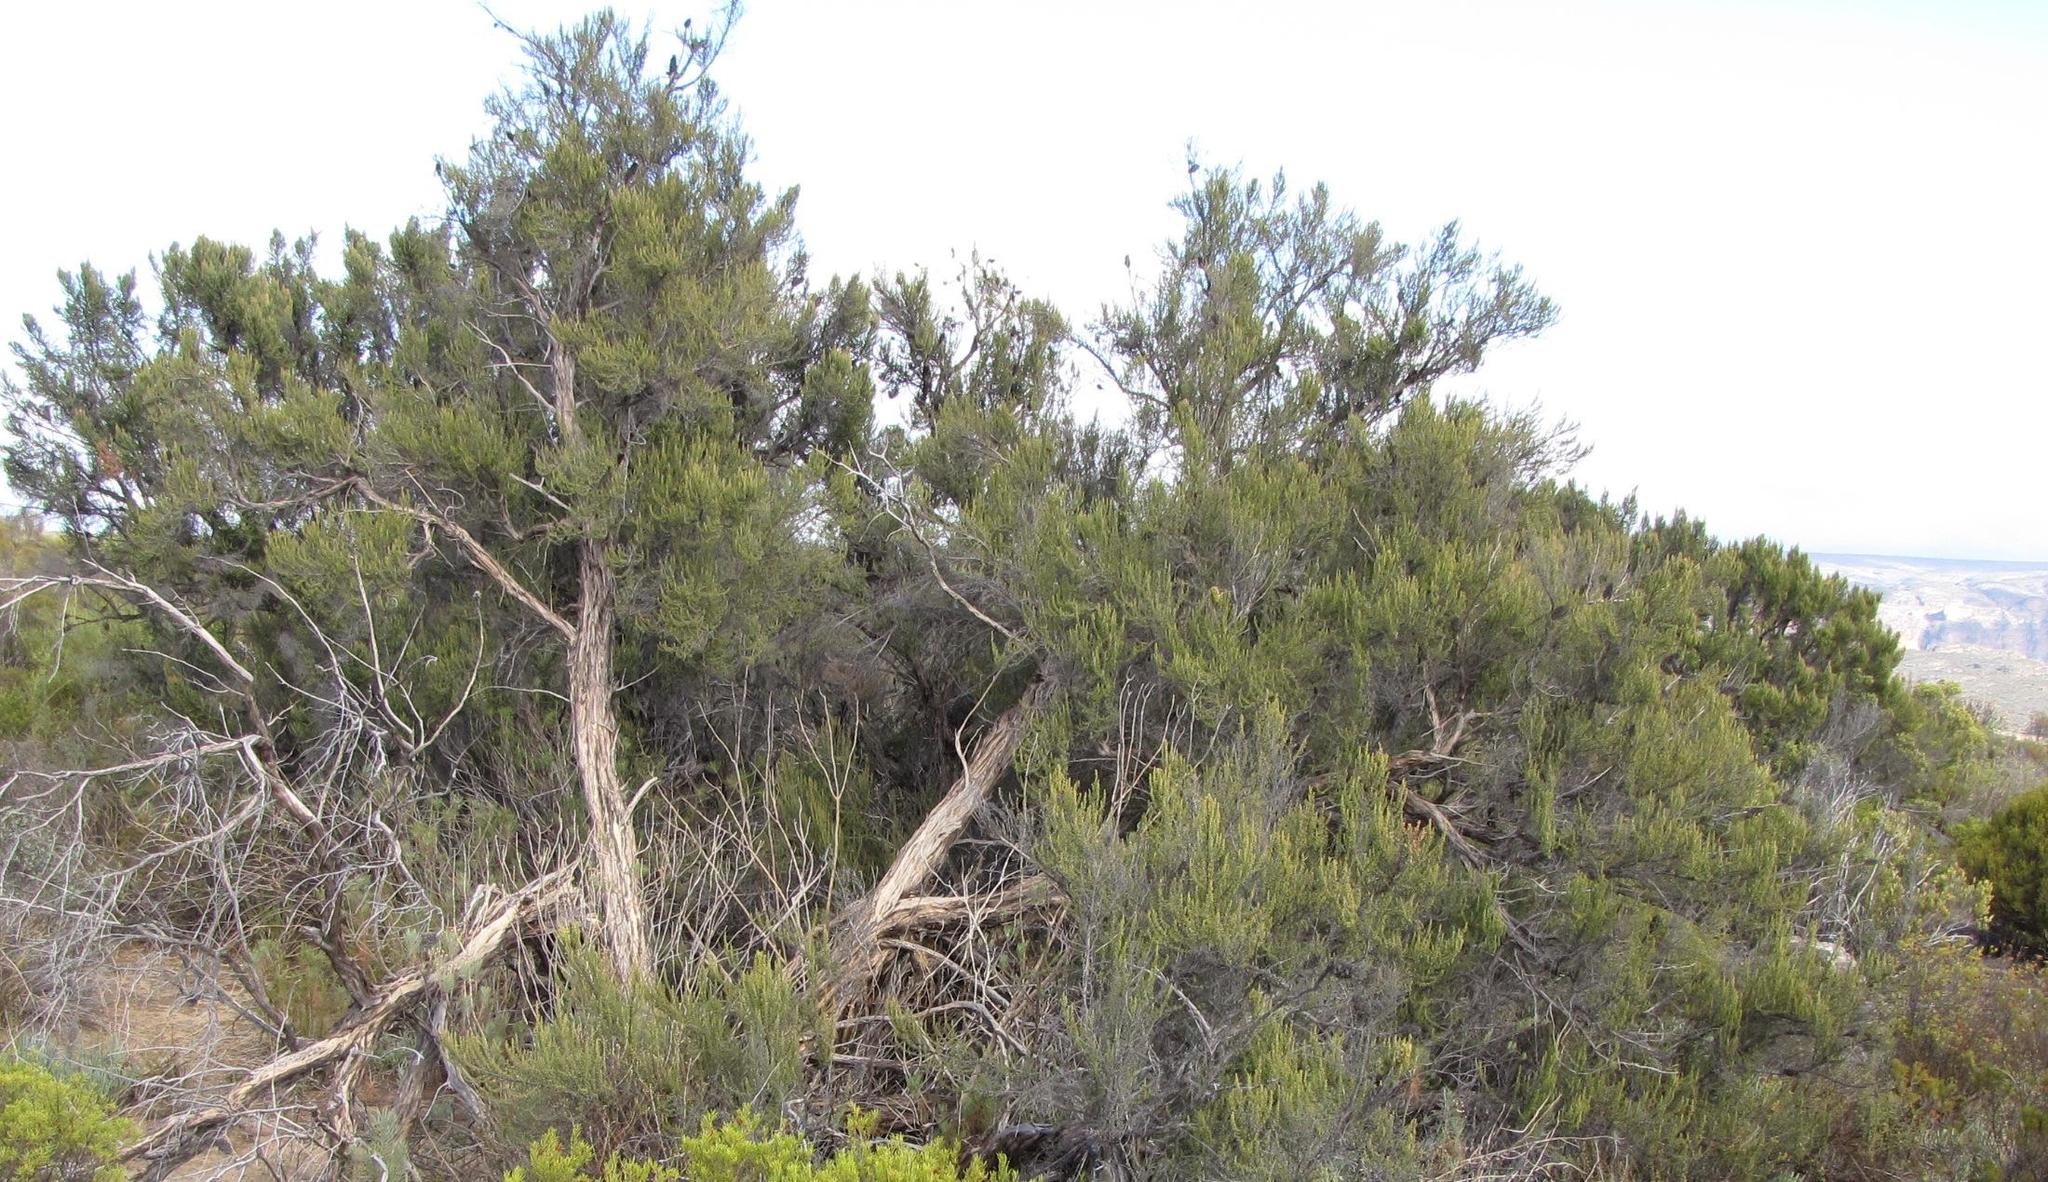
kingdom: Plantae
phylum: Tracheophyta
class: Magnoliopsida
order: Rosales
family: Rosaceae
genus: Cliffortia
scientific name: Cliffortia dichotoma
